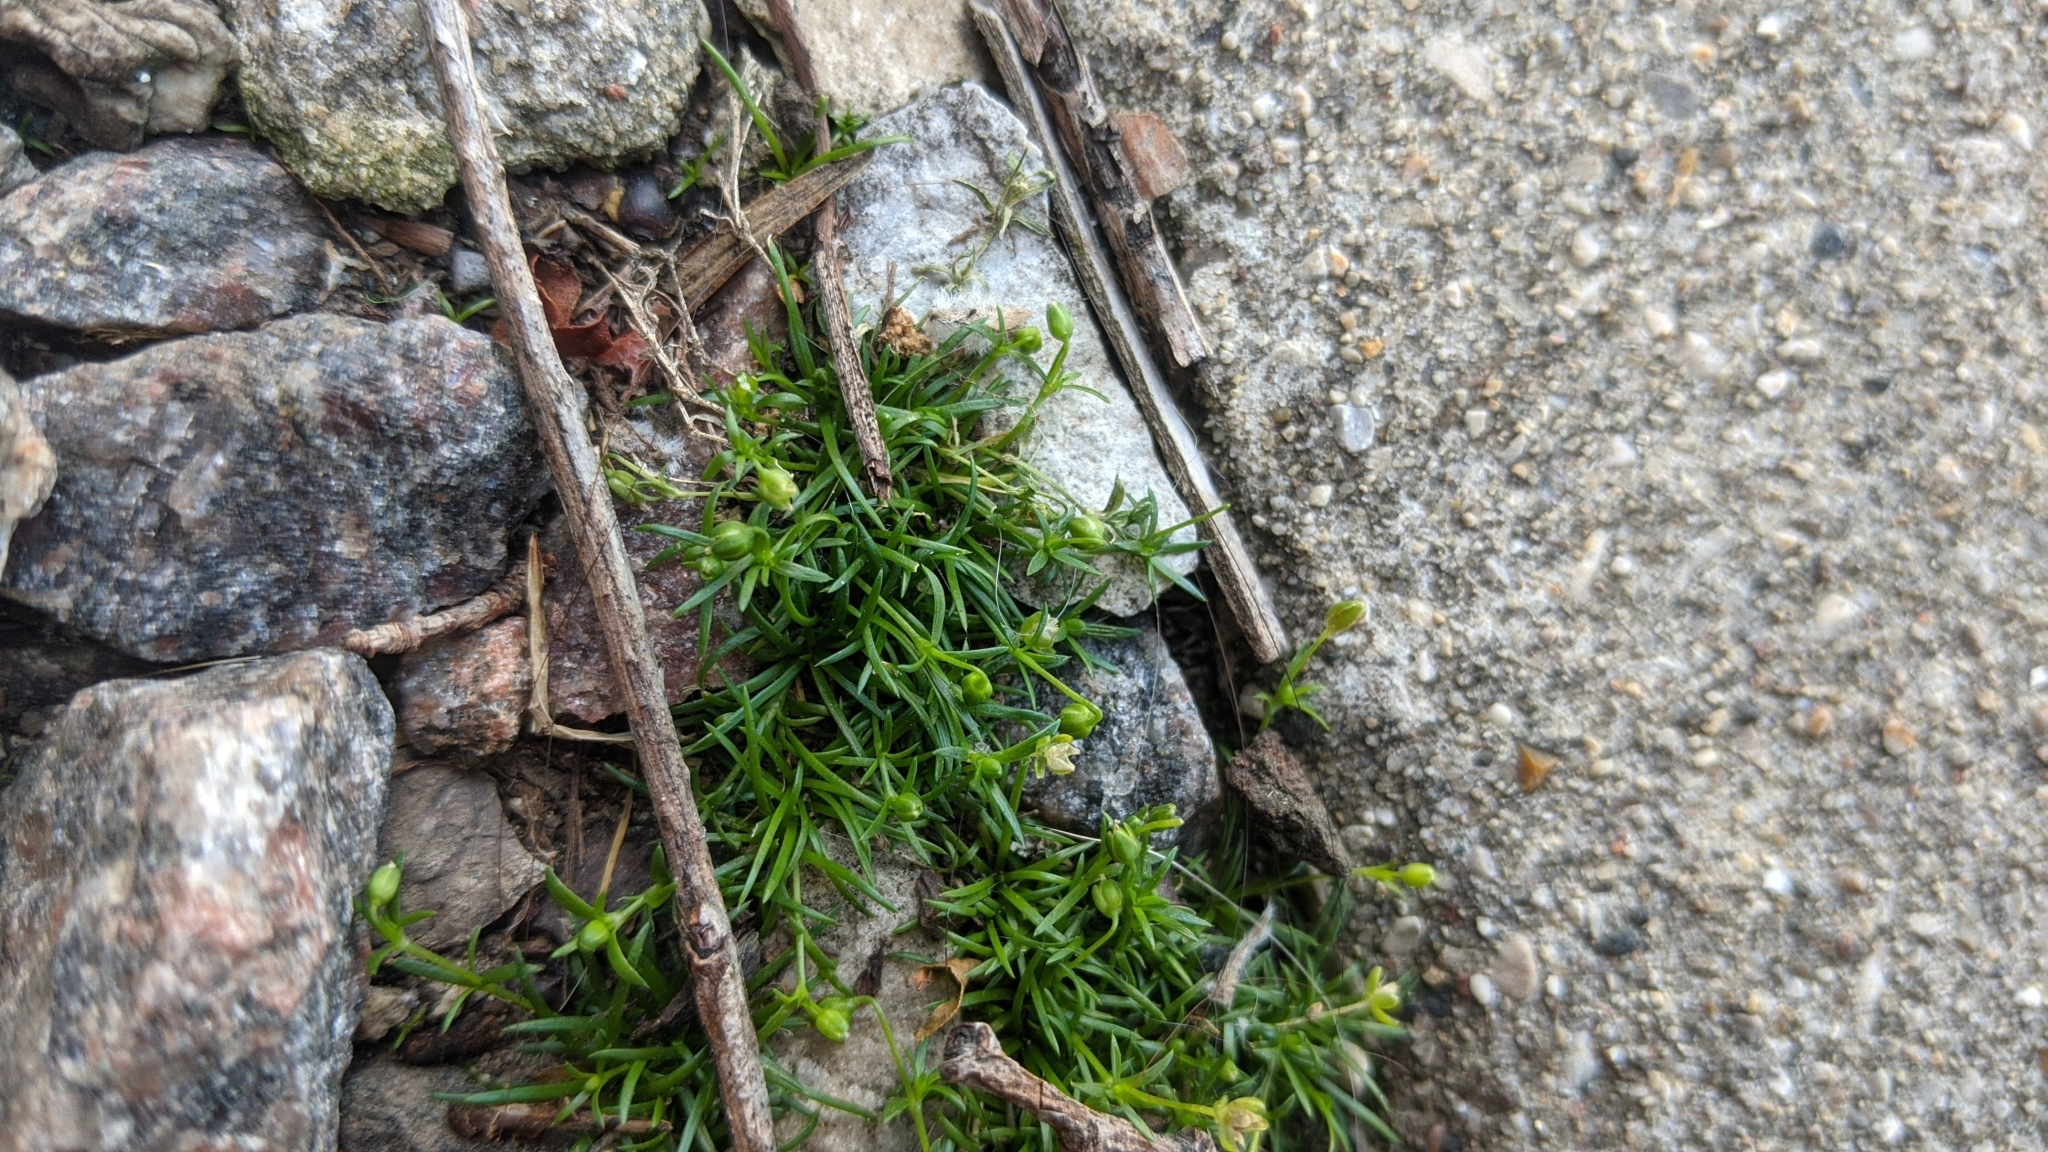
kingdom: Plantae
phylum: Tracheophyta
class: Magnoliopsida
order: Caryophyllales
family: Caryophyllaceae
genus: Sagina
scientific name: Sagina procumbens
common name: Procumbent pearlwort
